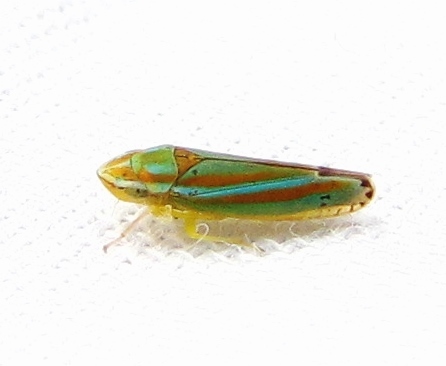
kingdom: Animalia
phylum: Arthropoda
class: Insecta
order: Hemiptera
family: Cicadellidae
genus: Graphocephala
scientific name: Graphocephala versuta
